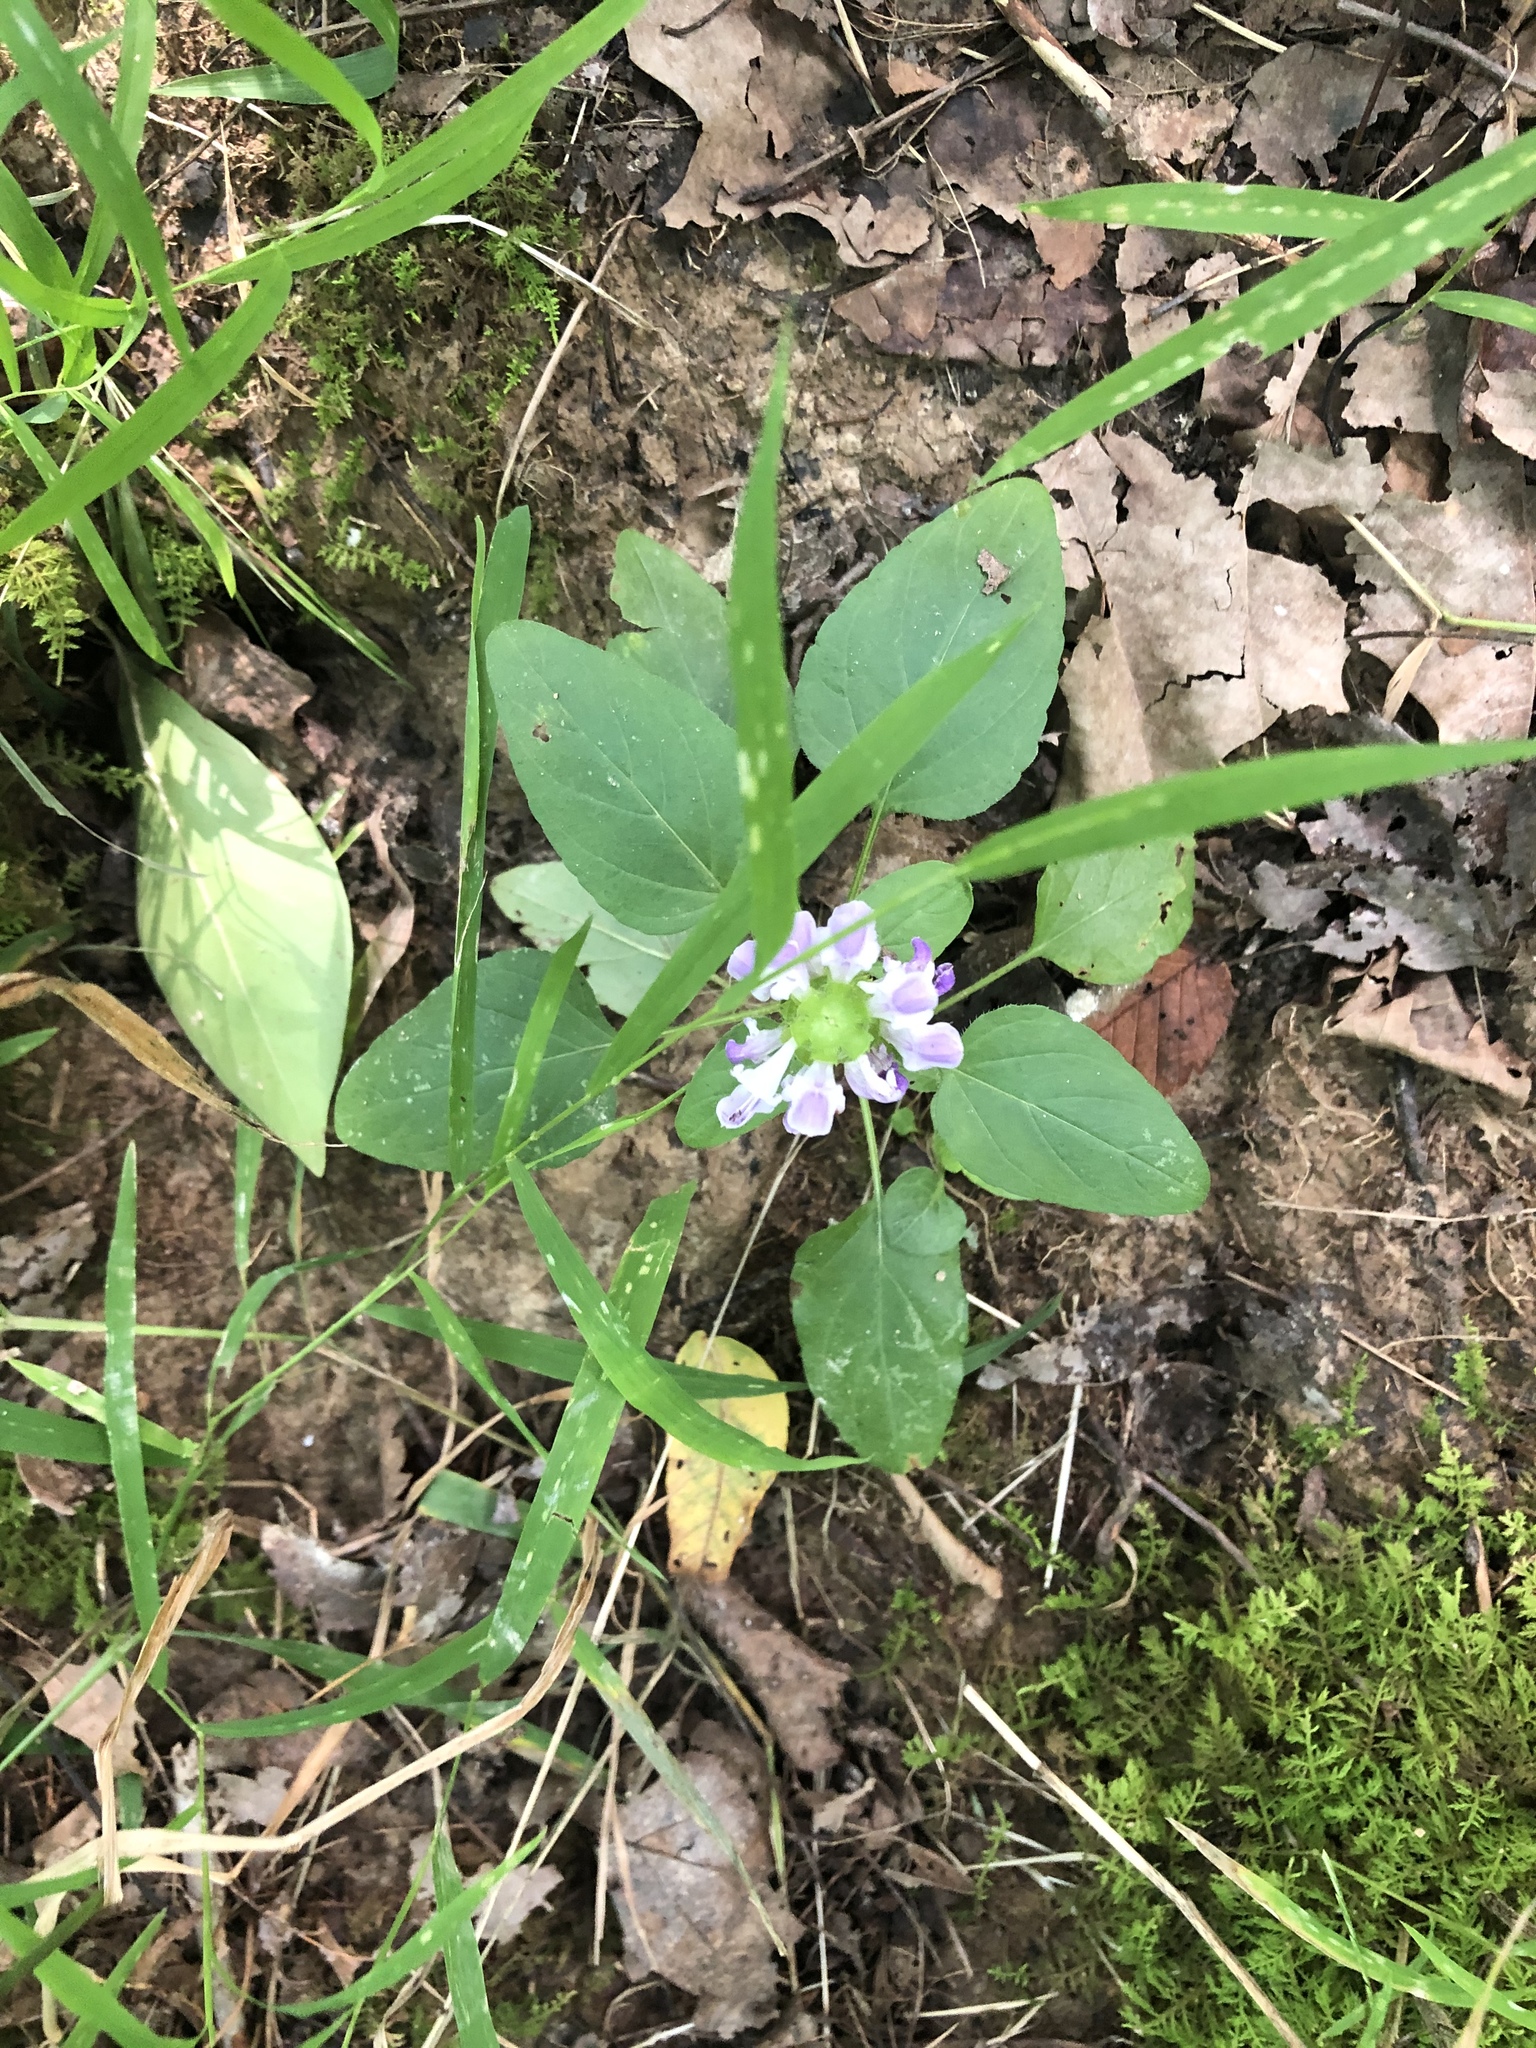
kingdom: Plantae
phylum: Tracheophyta
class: Magnoliopsida
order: Lamiales
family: Lamiaceae
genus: Prunella
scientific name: Prunella vulgaris
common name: Heal-all
